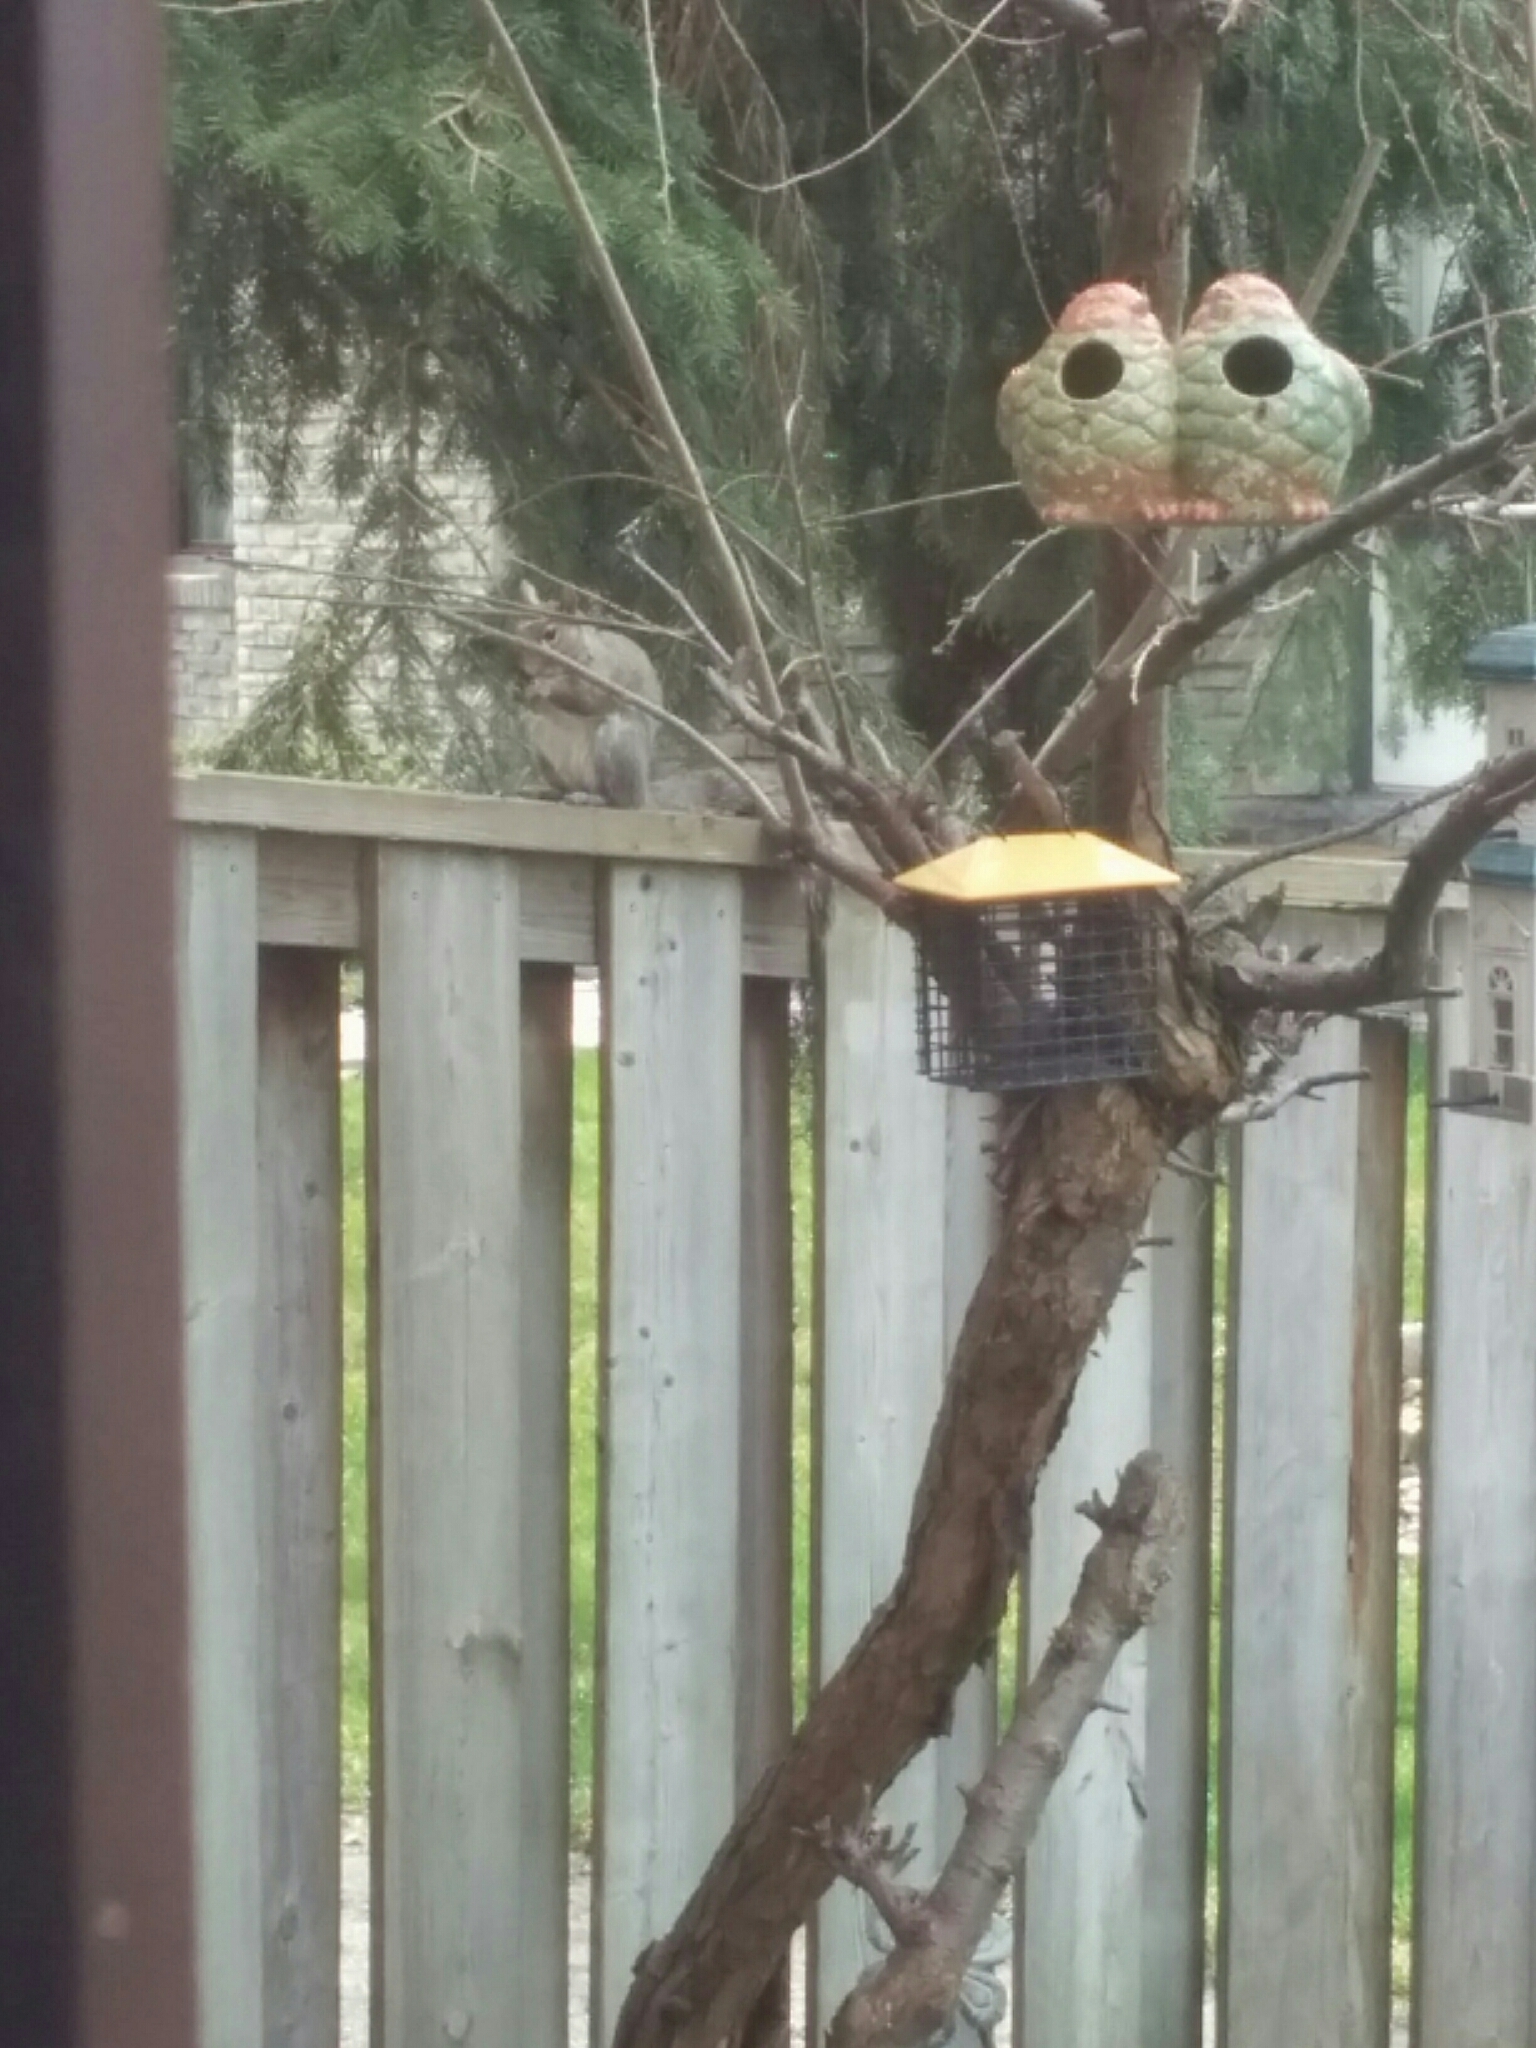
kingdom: Animalia
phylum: Chordata
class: Mammalia
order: Rodentia
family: Sciuridae
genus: Sciurus
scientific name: Sciurus carolinensis
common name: Eastern gray squirrel
